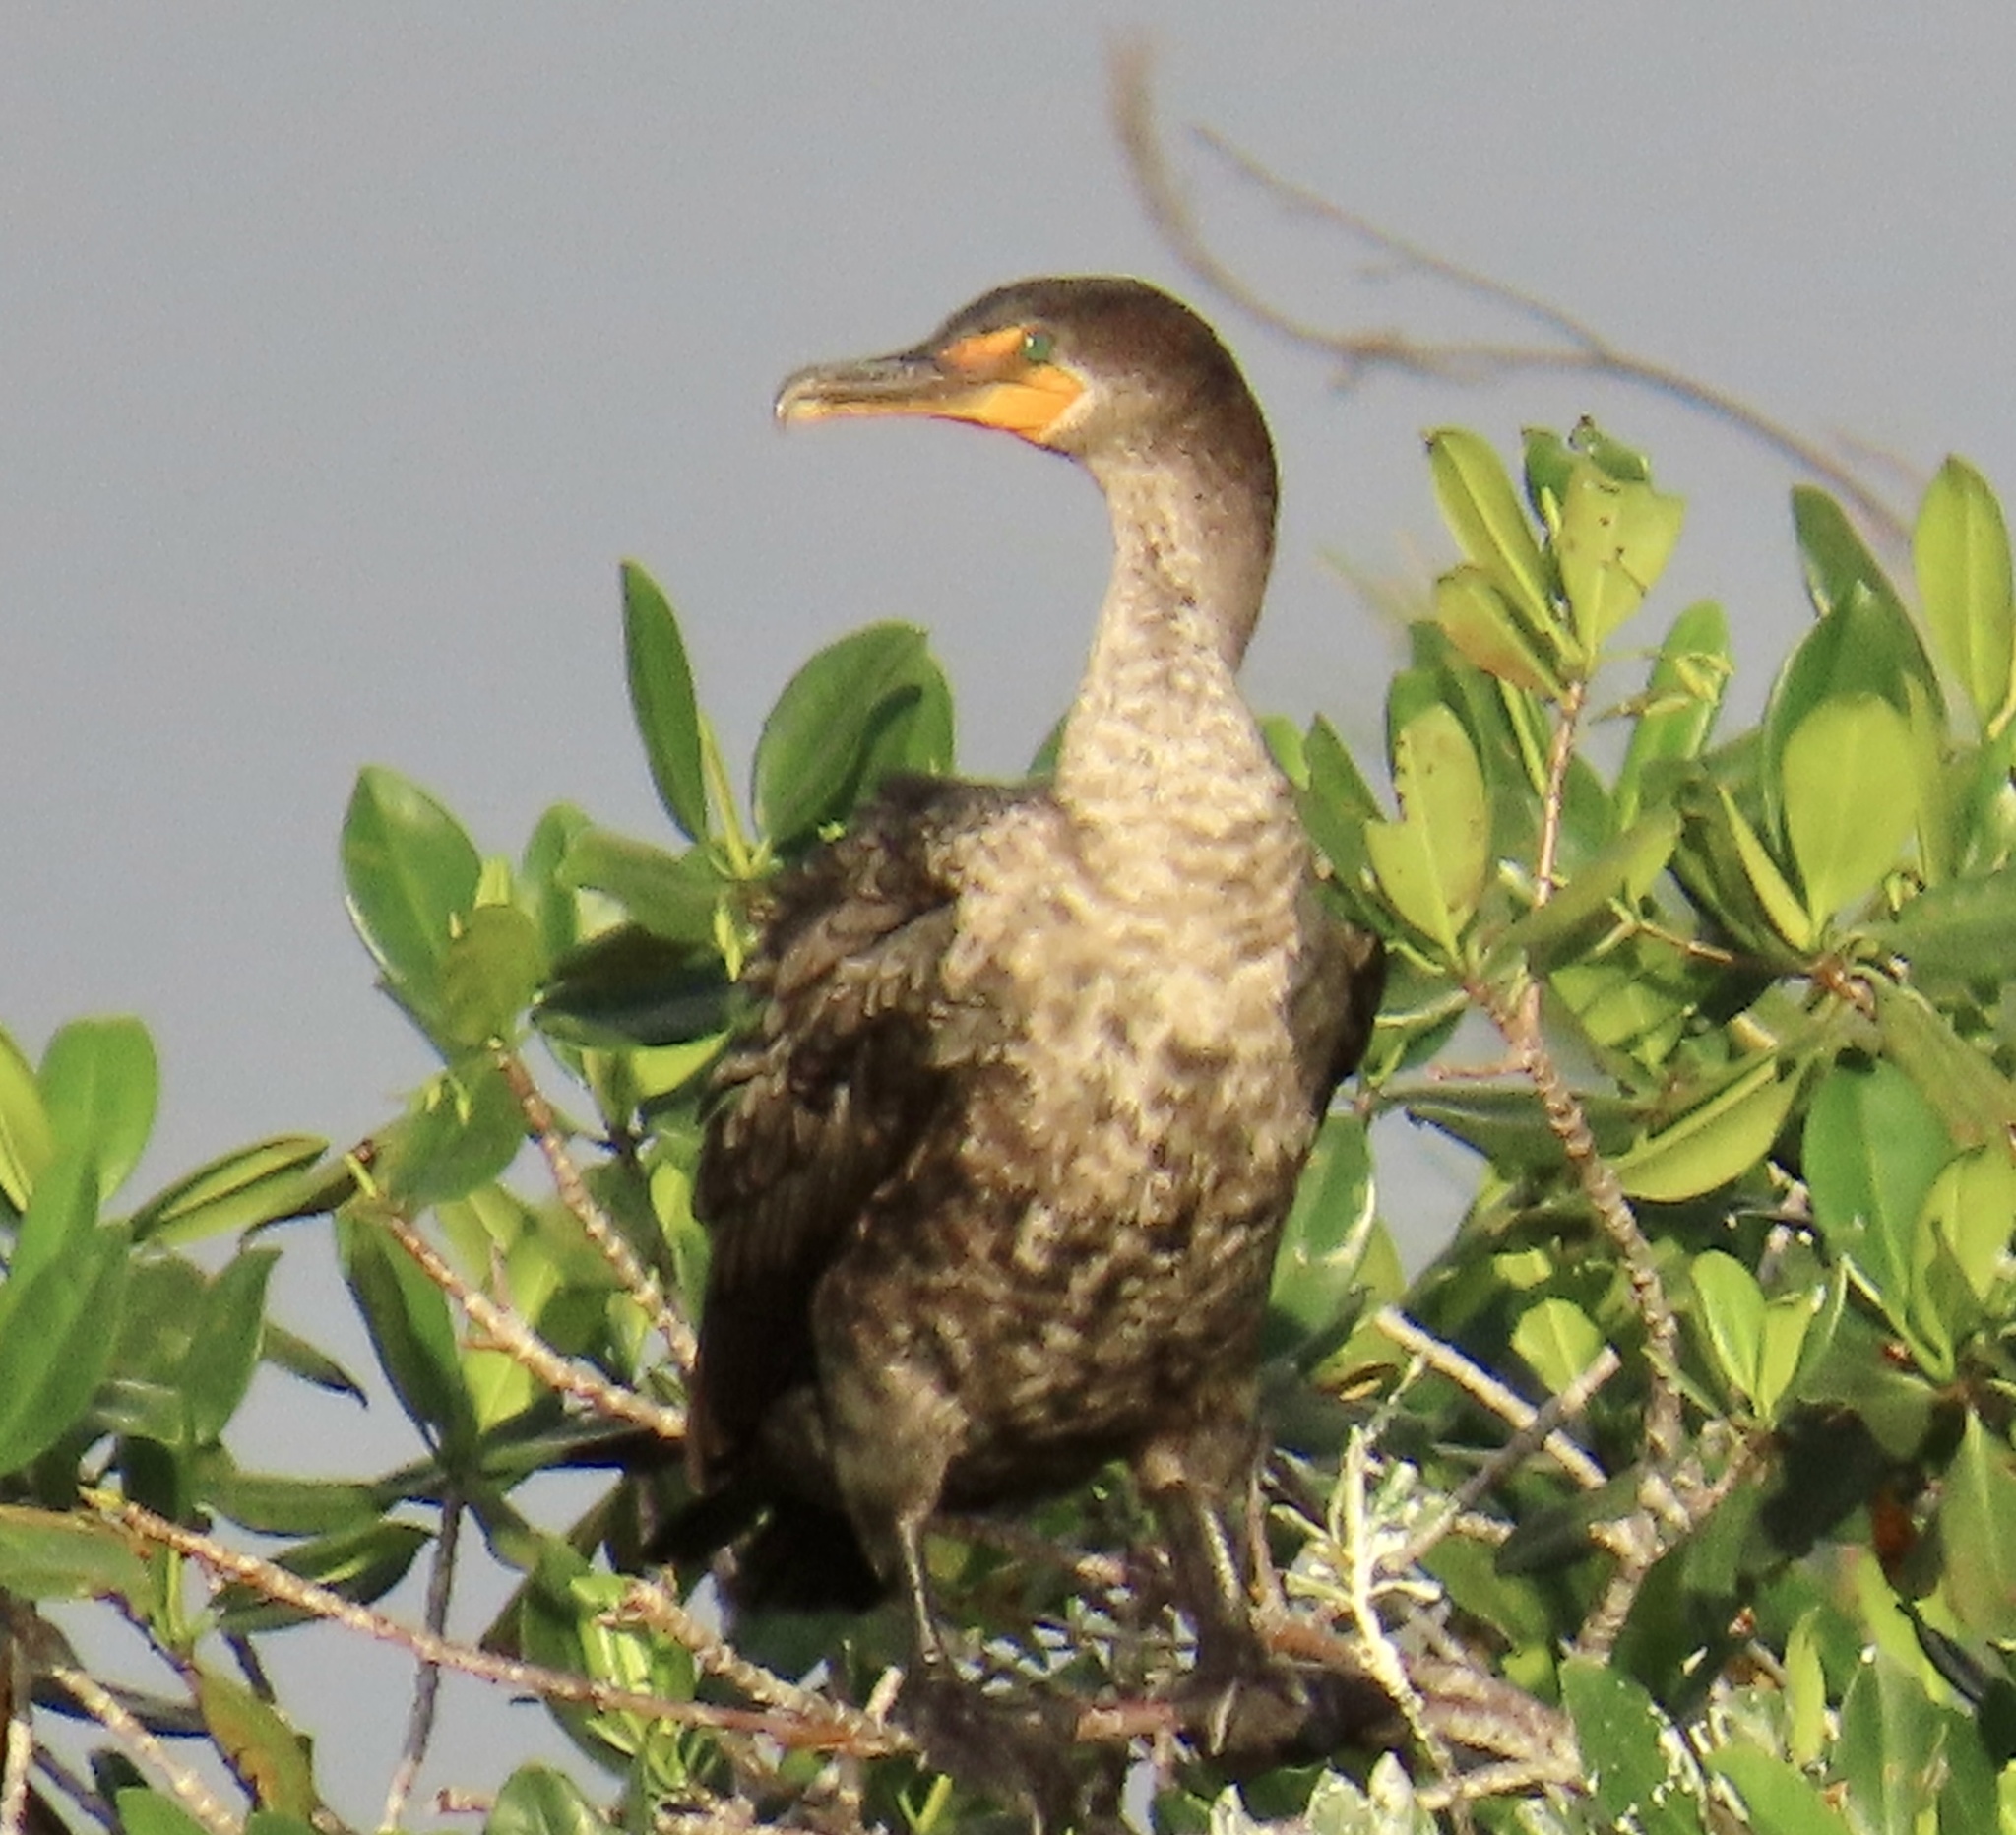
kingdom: Animalia
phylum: Chordata
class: Aves
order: Suliformes
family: Phalacrocoracidae
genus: Phalacrocorax
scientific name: Phalacrocorax brasilianus
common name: Neotropic cormorant
